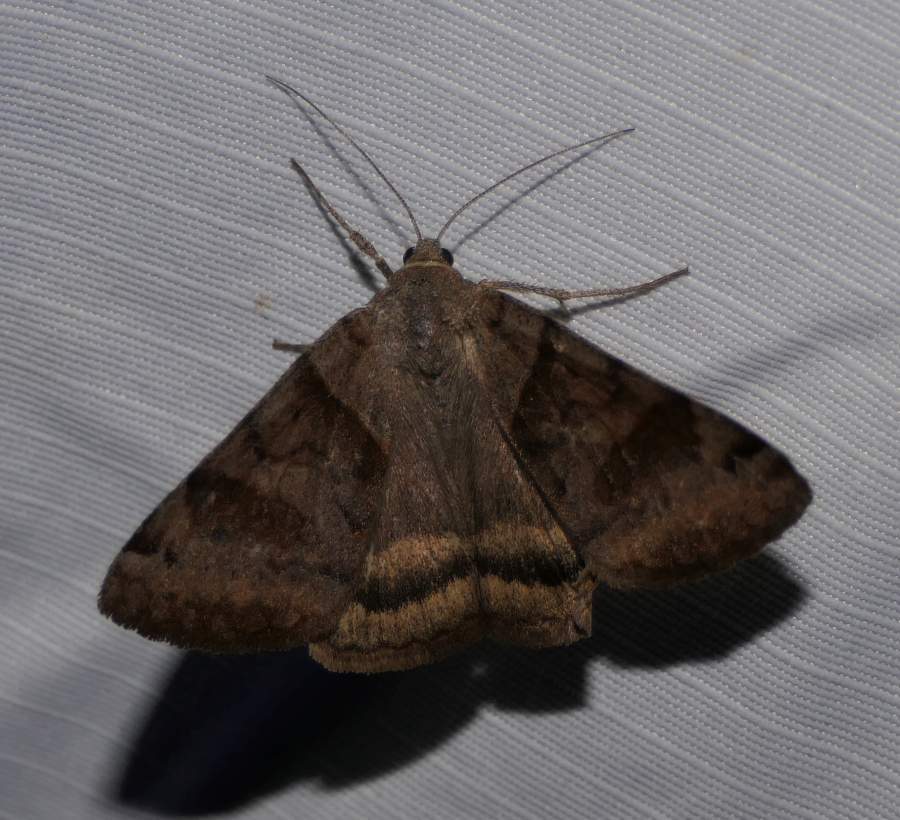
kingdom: Animalia
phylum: Arthropoda
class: Insecta
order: Lepidoptera
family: Erebidae
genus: Caenurgina
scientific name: Caenurgina erechtea
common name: Forage looper moth
